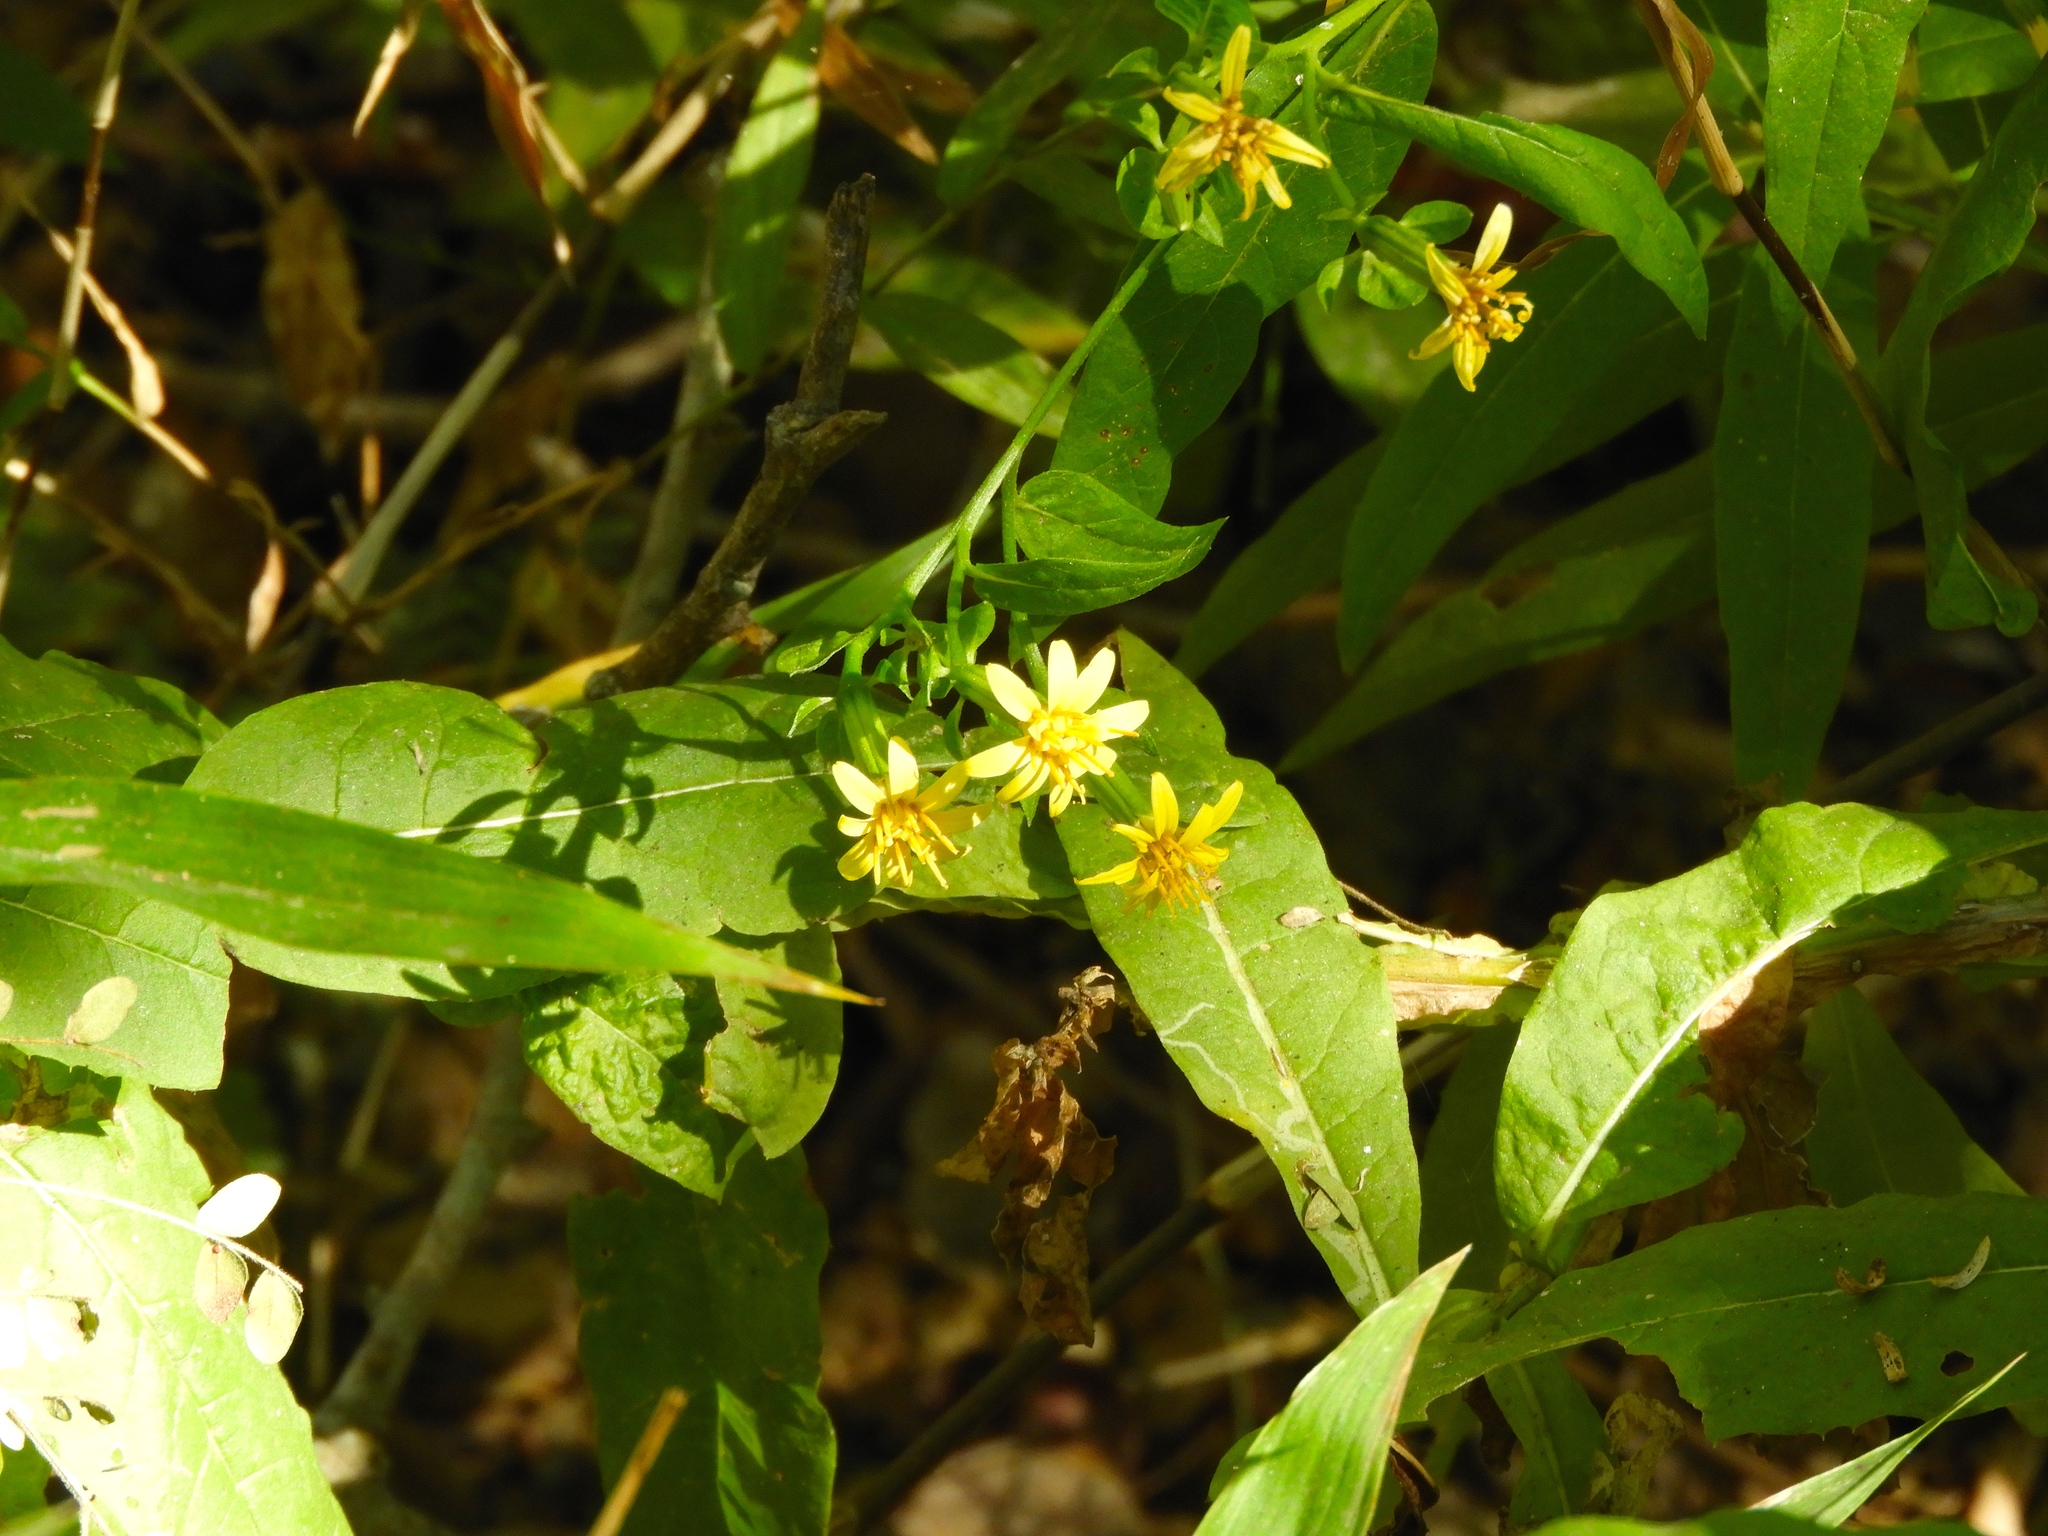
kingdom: Plantae
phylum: Tracheophyta
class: Magnoliopsida
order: Asterales
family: Asteraceae
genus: Trixis
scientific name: Trixis pterocaulis
